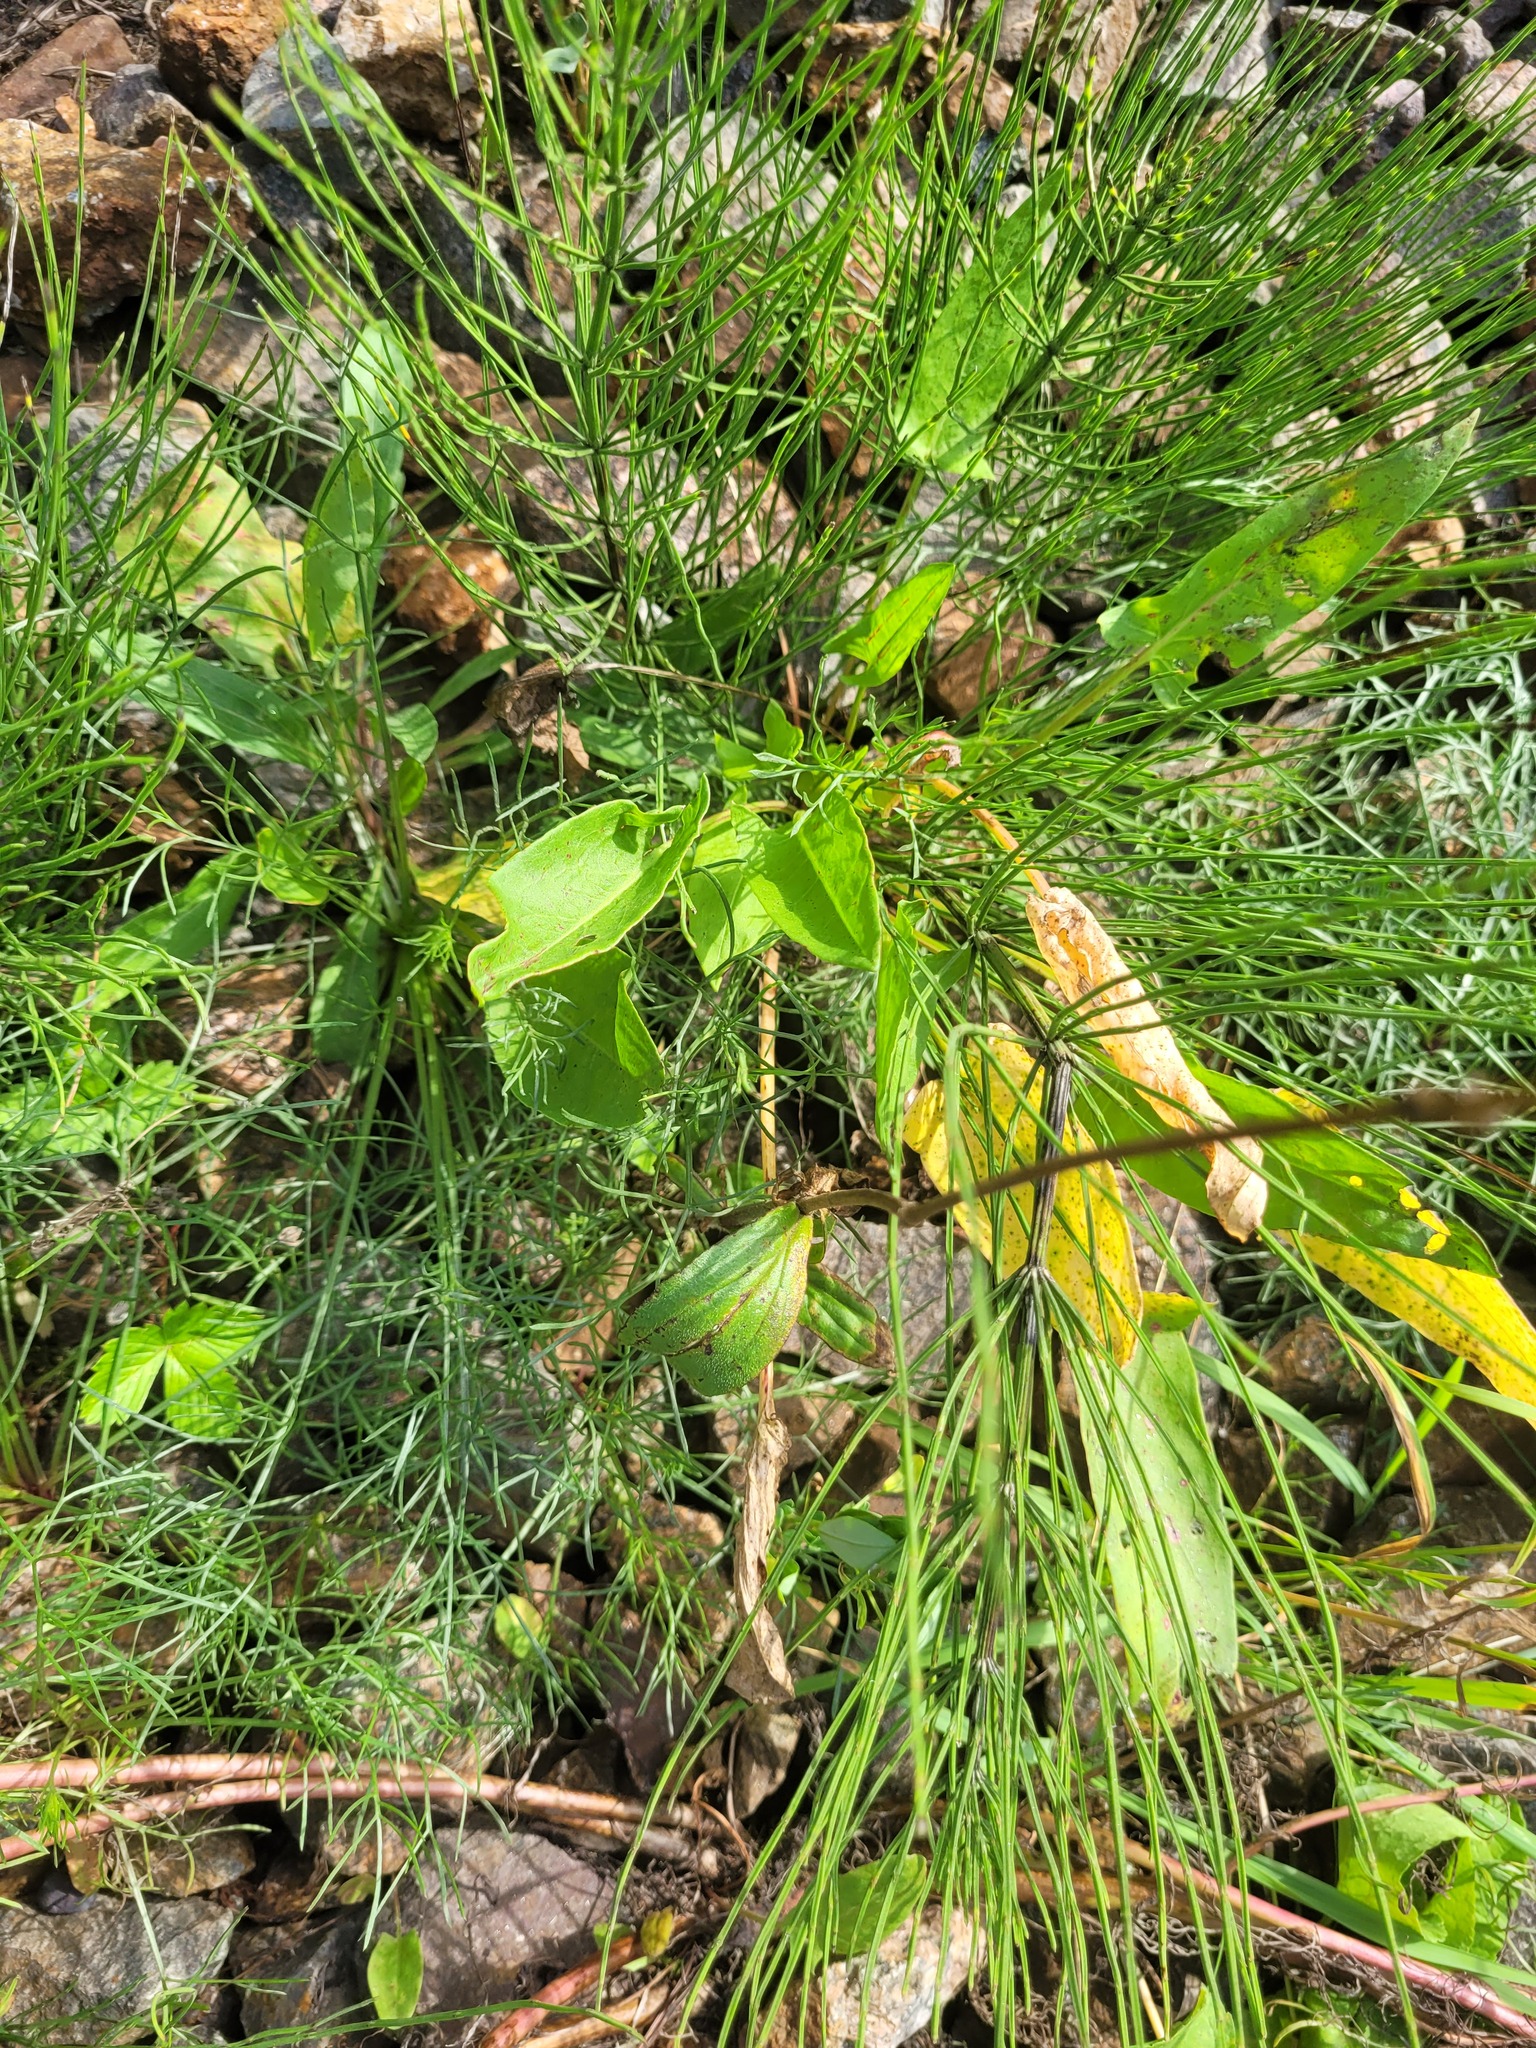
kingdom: Plantae
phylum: Tracheophyta
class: Magnoliopsida
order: Caryophyllales
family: Caryophyllaceae
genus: Silene
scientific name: Silene dioica
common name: Red campion
